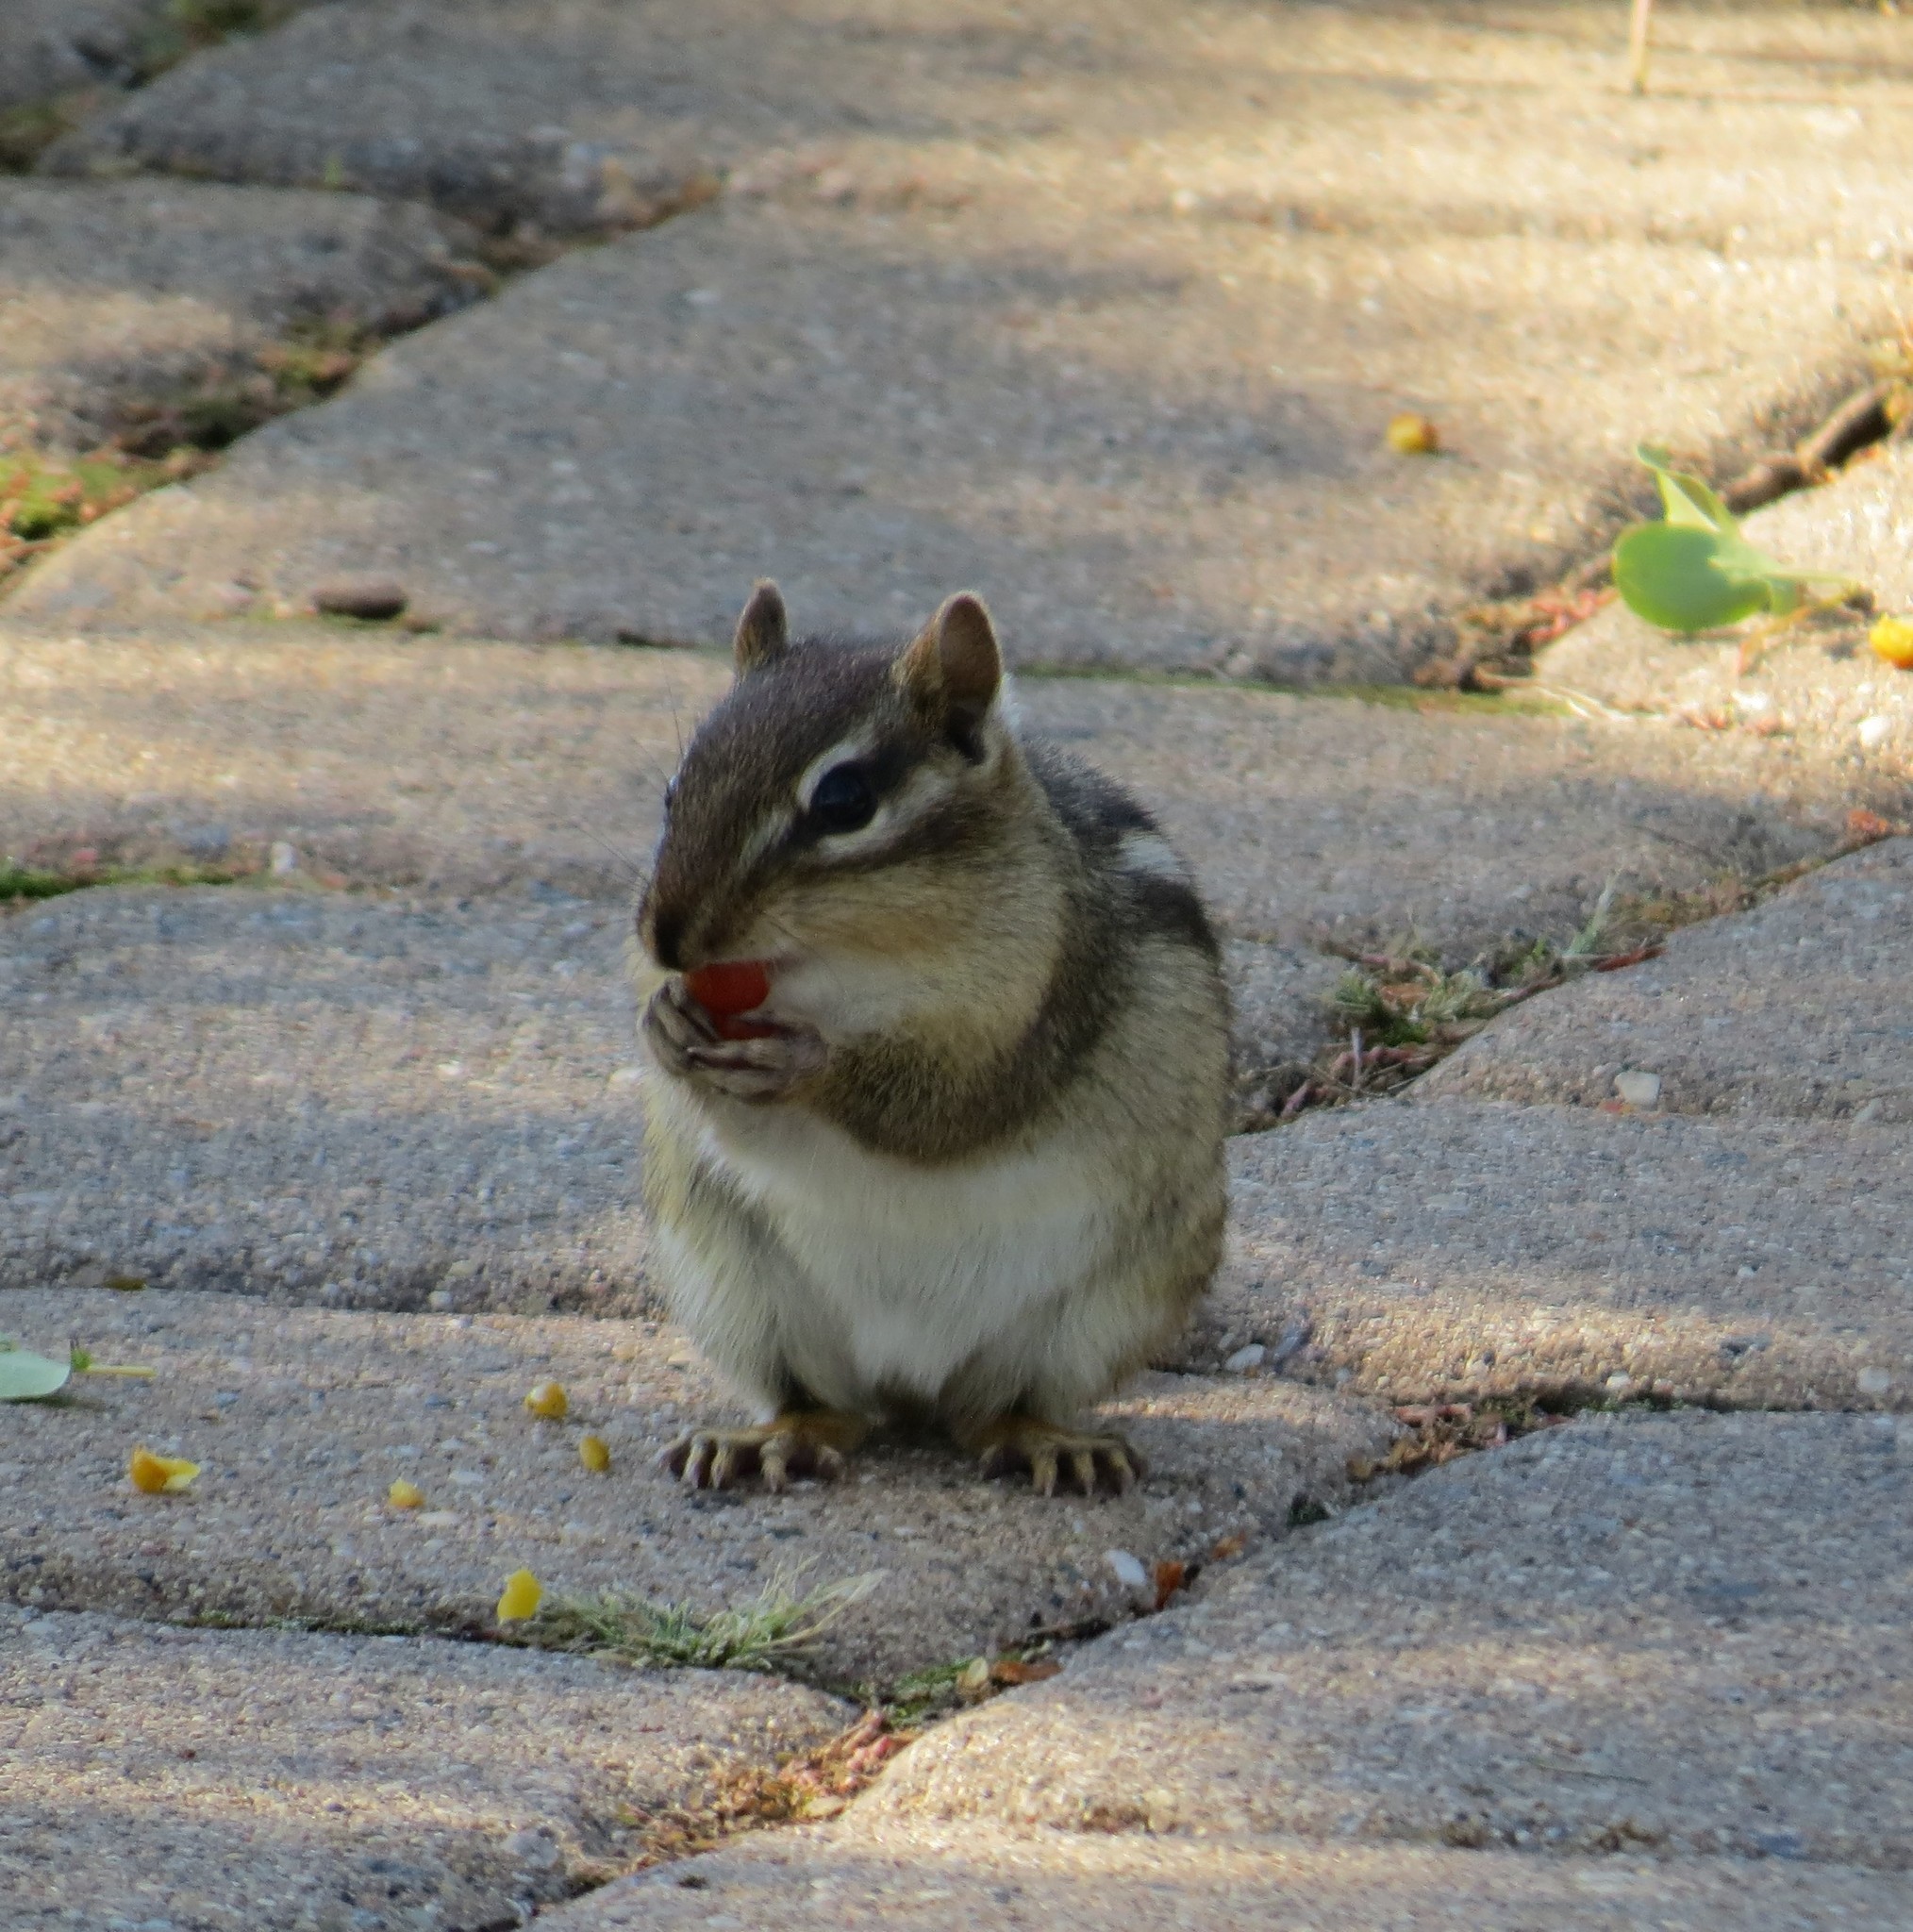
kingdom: Animalia
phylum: Chordata
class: Mammalia
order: Rodentia
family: Sciuridae
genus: Tamias
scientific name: Tamias striatus
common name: Eastern chipmunk
